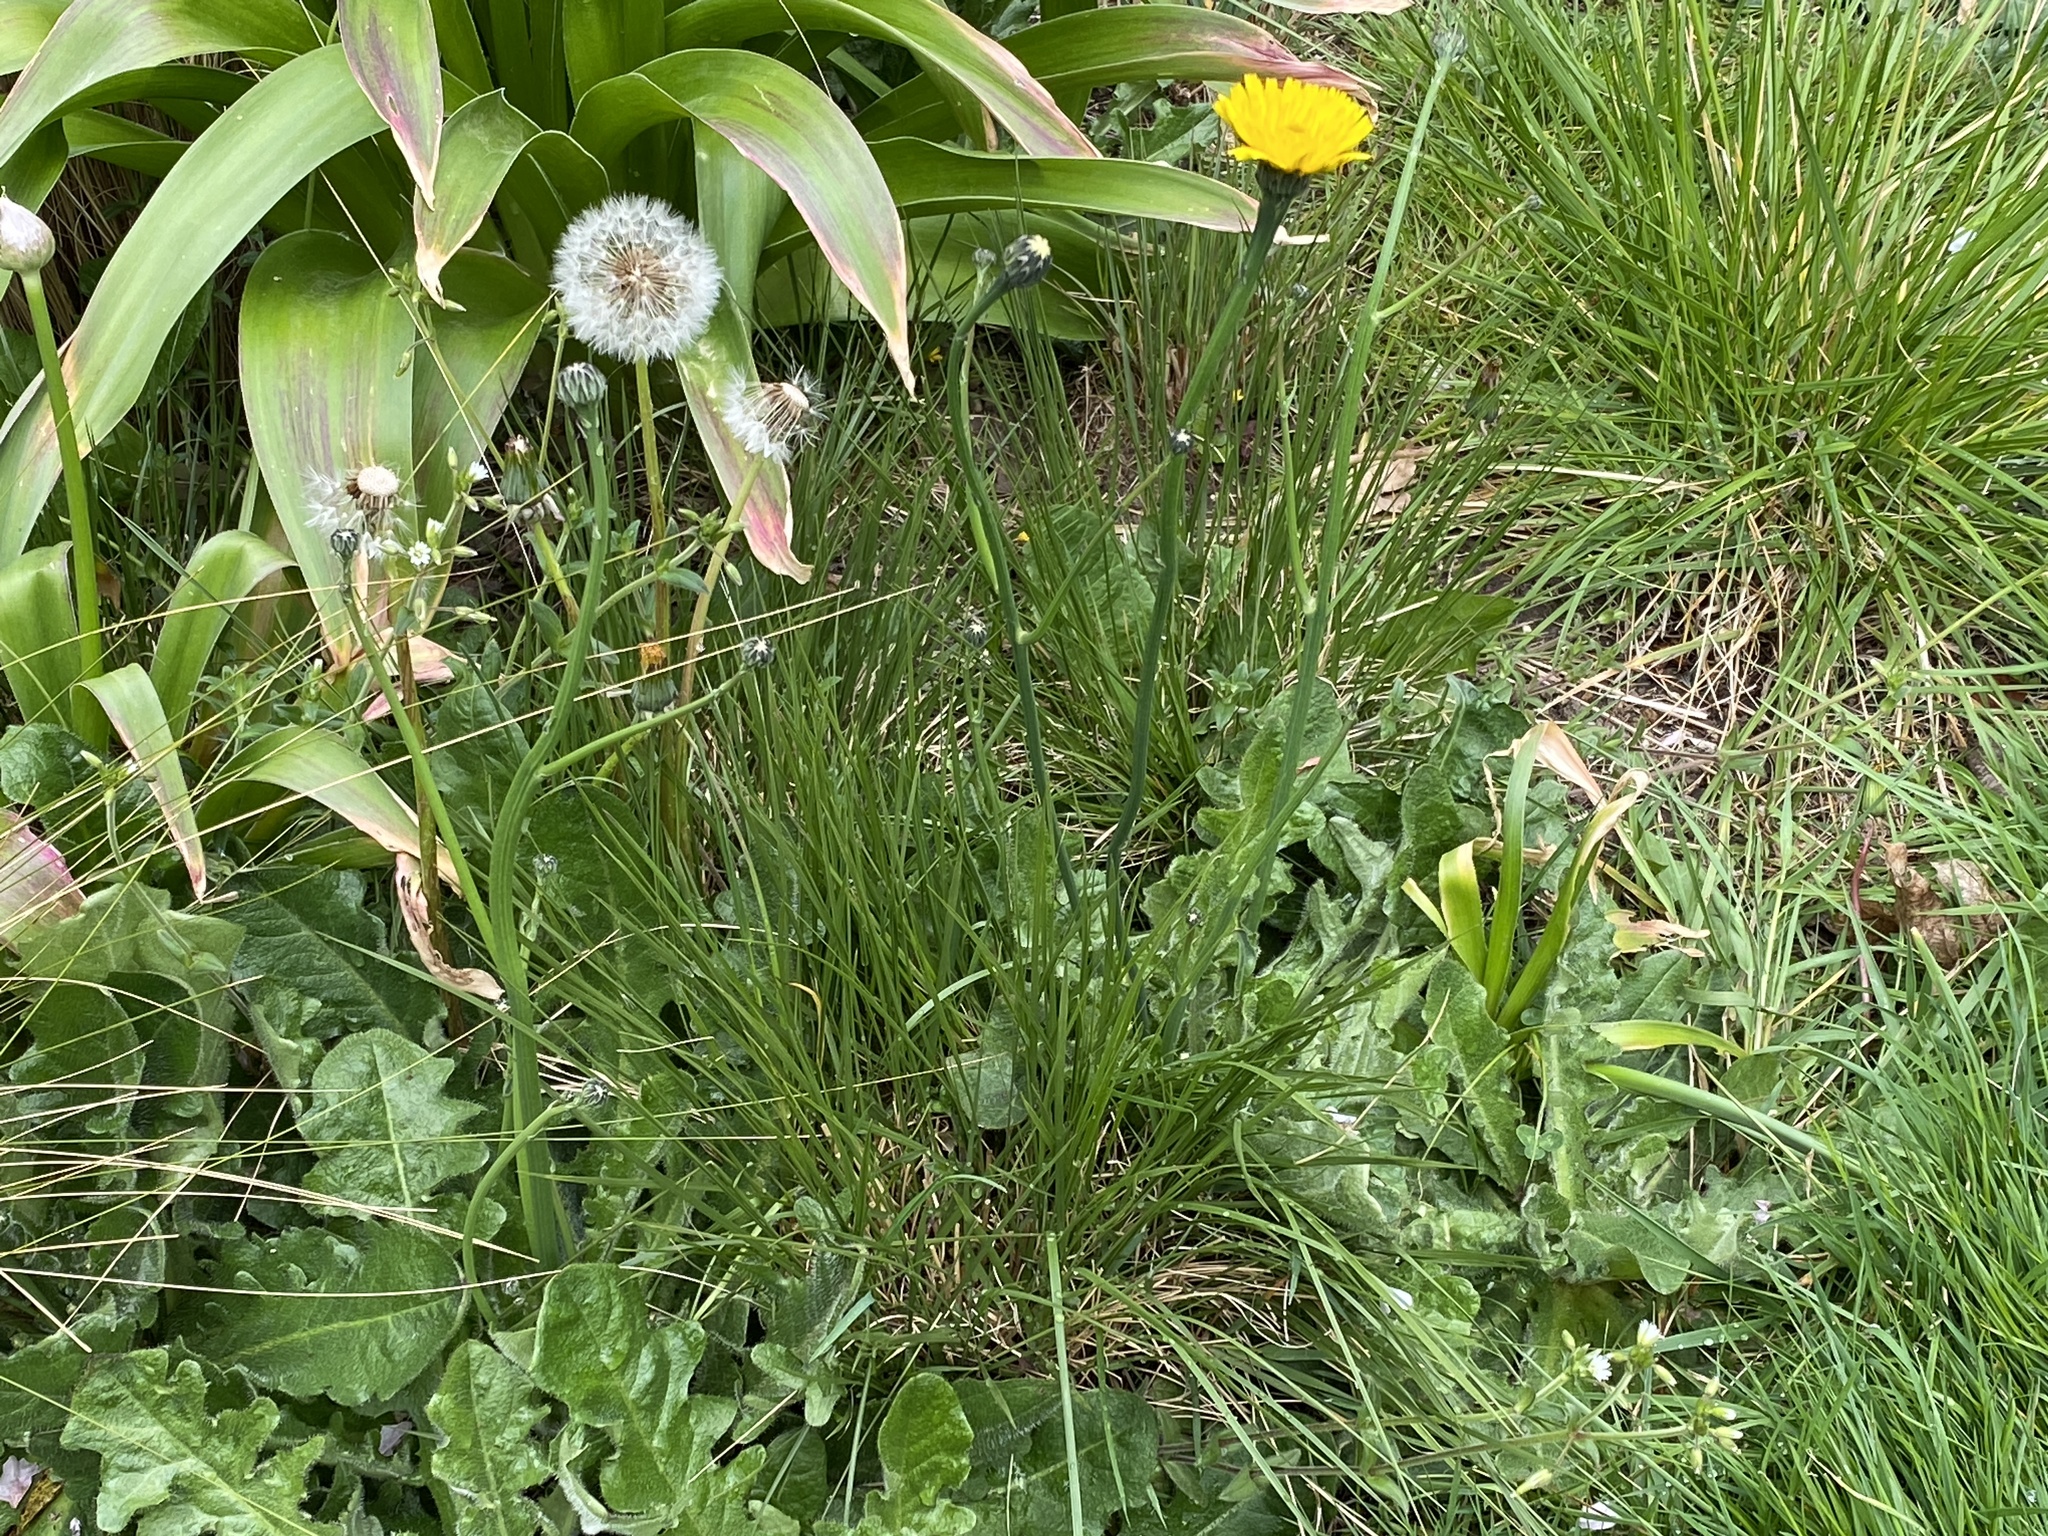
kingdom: Plantae
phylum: Tracheophyta
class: Magnoliopsida
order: Asterales
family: Asteraceae
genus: Hypochaeris
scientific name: Hypochaeris radicata
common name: Flatweed
